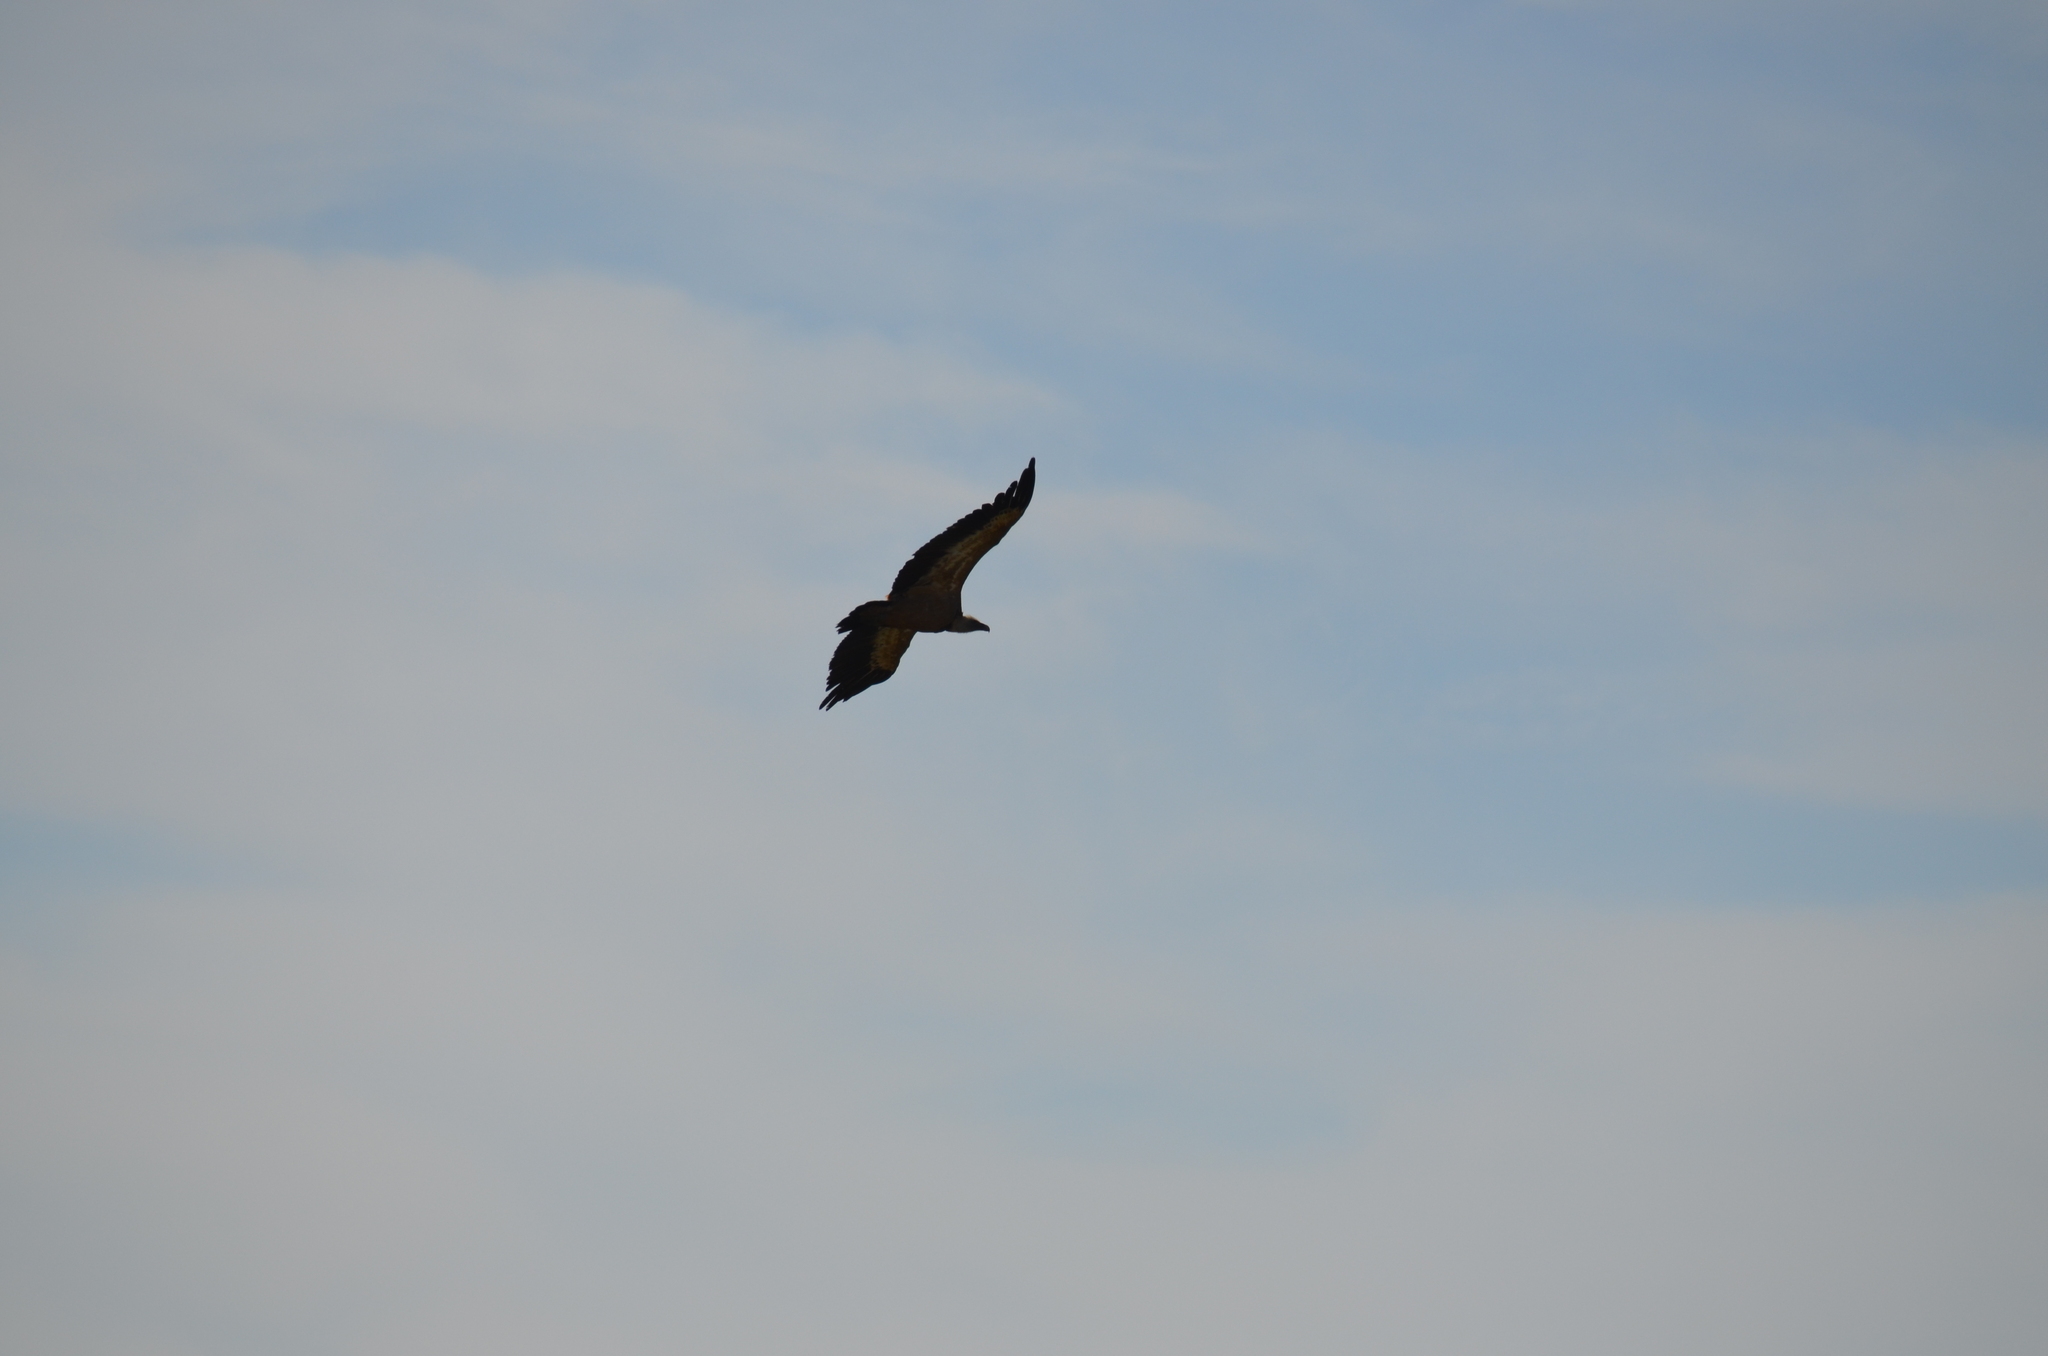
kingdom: Animalia
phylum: Chordata
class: Aves
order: Accipitriformes
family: Accipitridae
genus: Gyps
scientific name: Gyps fulvus
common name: Griffon vulture
